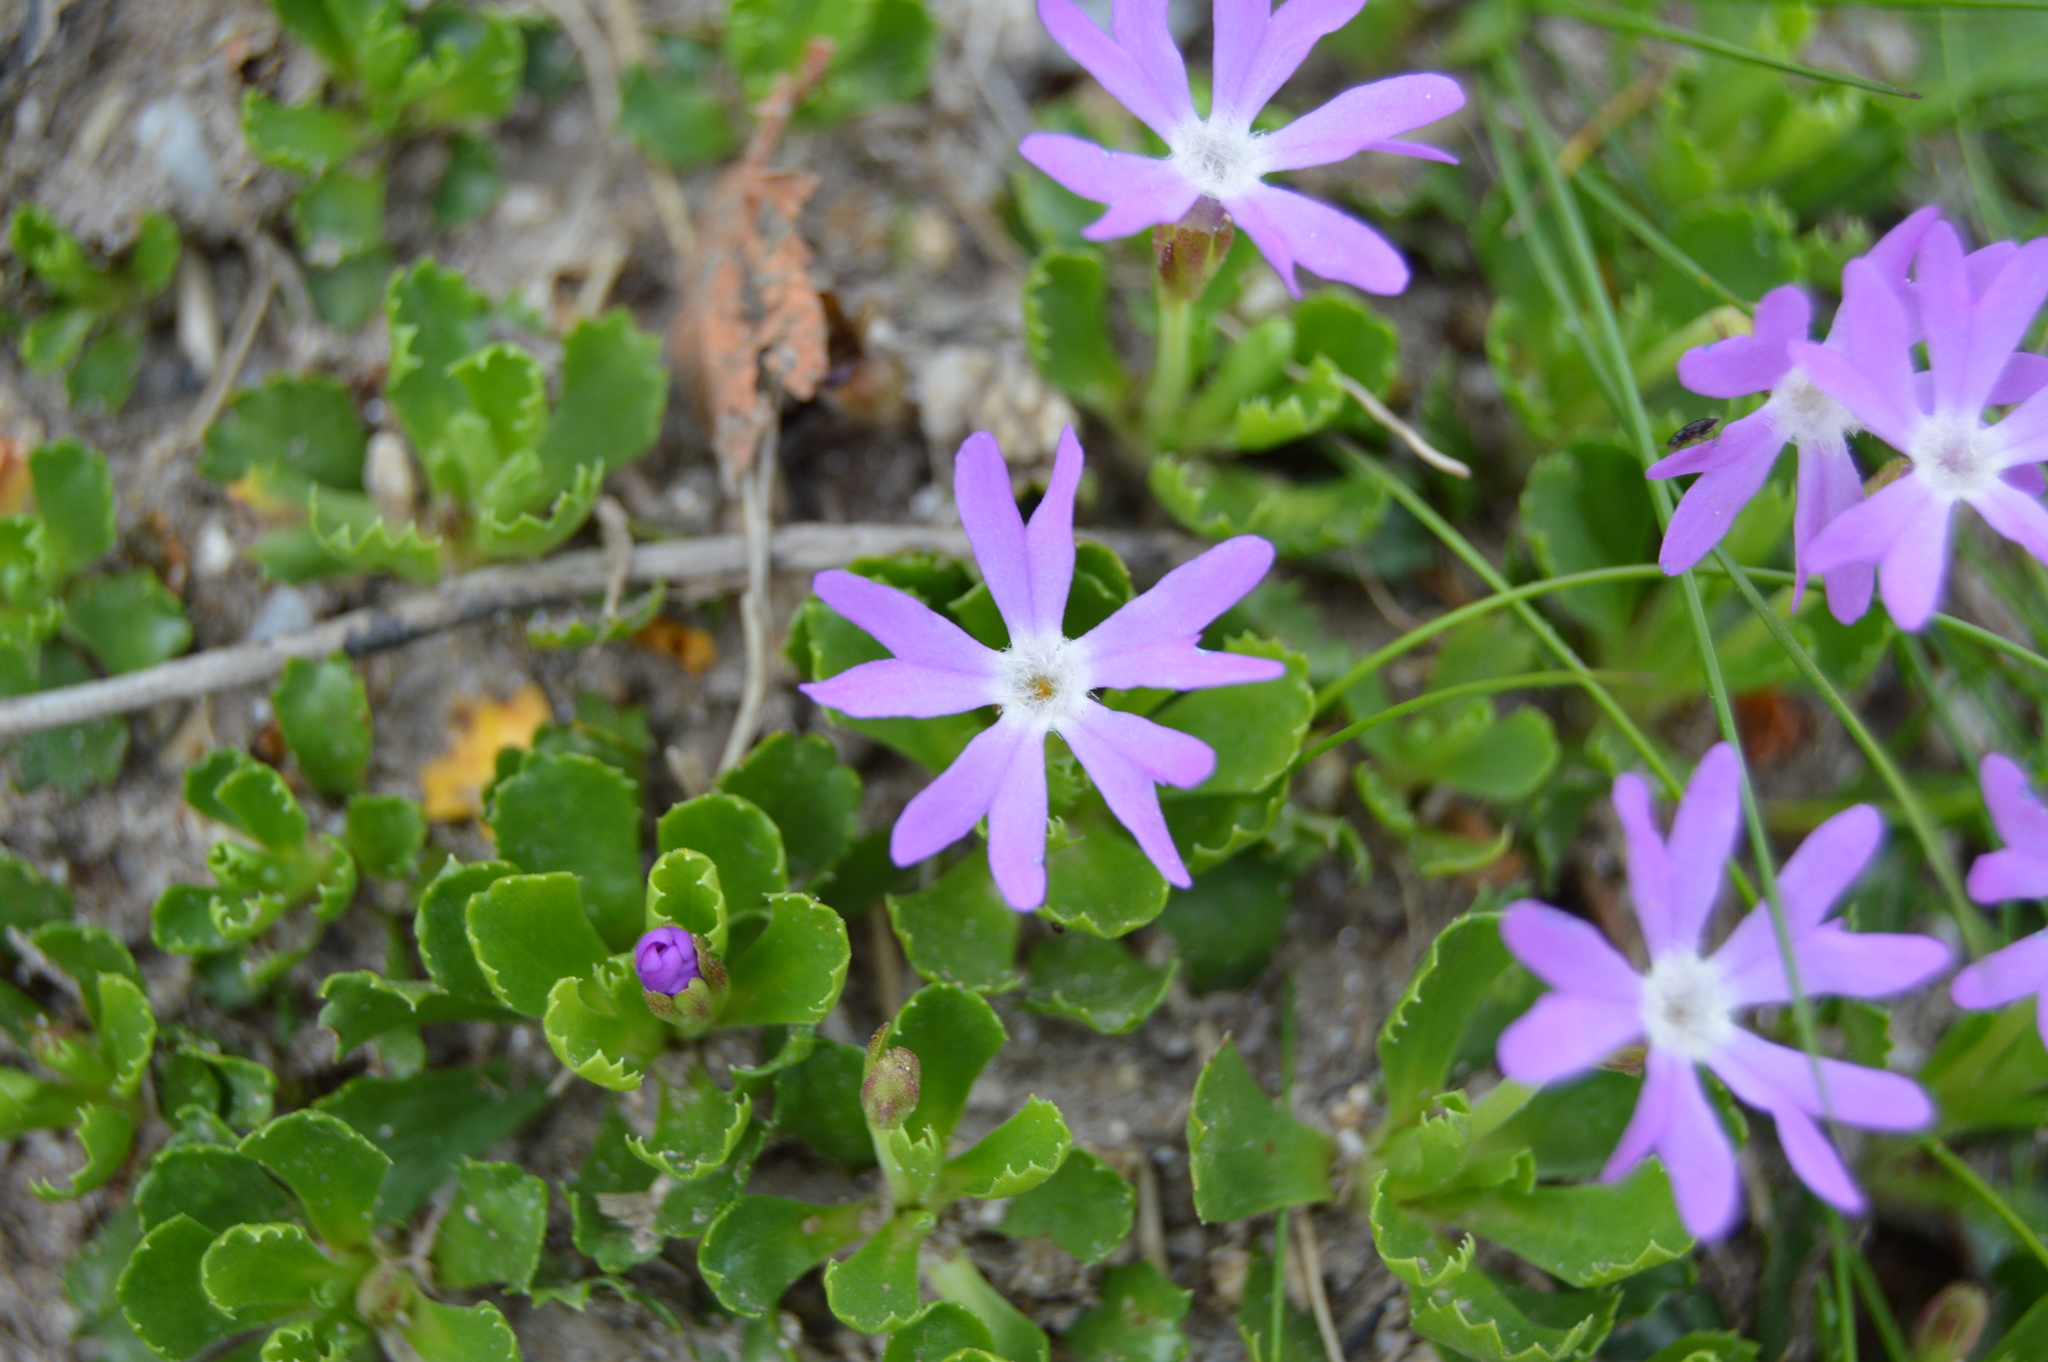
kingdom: Plantae
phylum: Tracheophyta
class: Magnoliopsida
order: Ericales
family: Primulaceae
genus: Primula
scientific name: Primula minima
